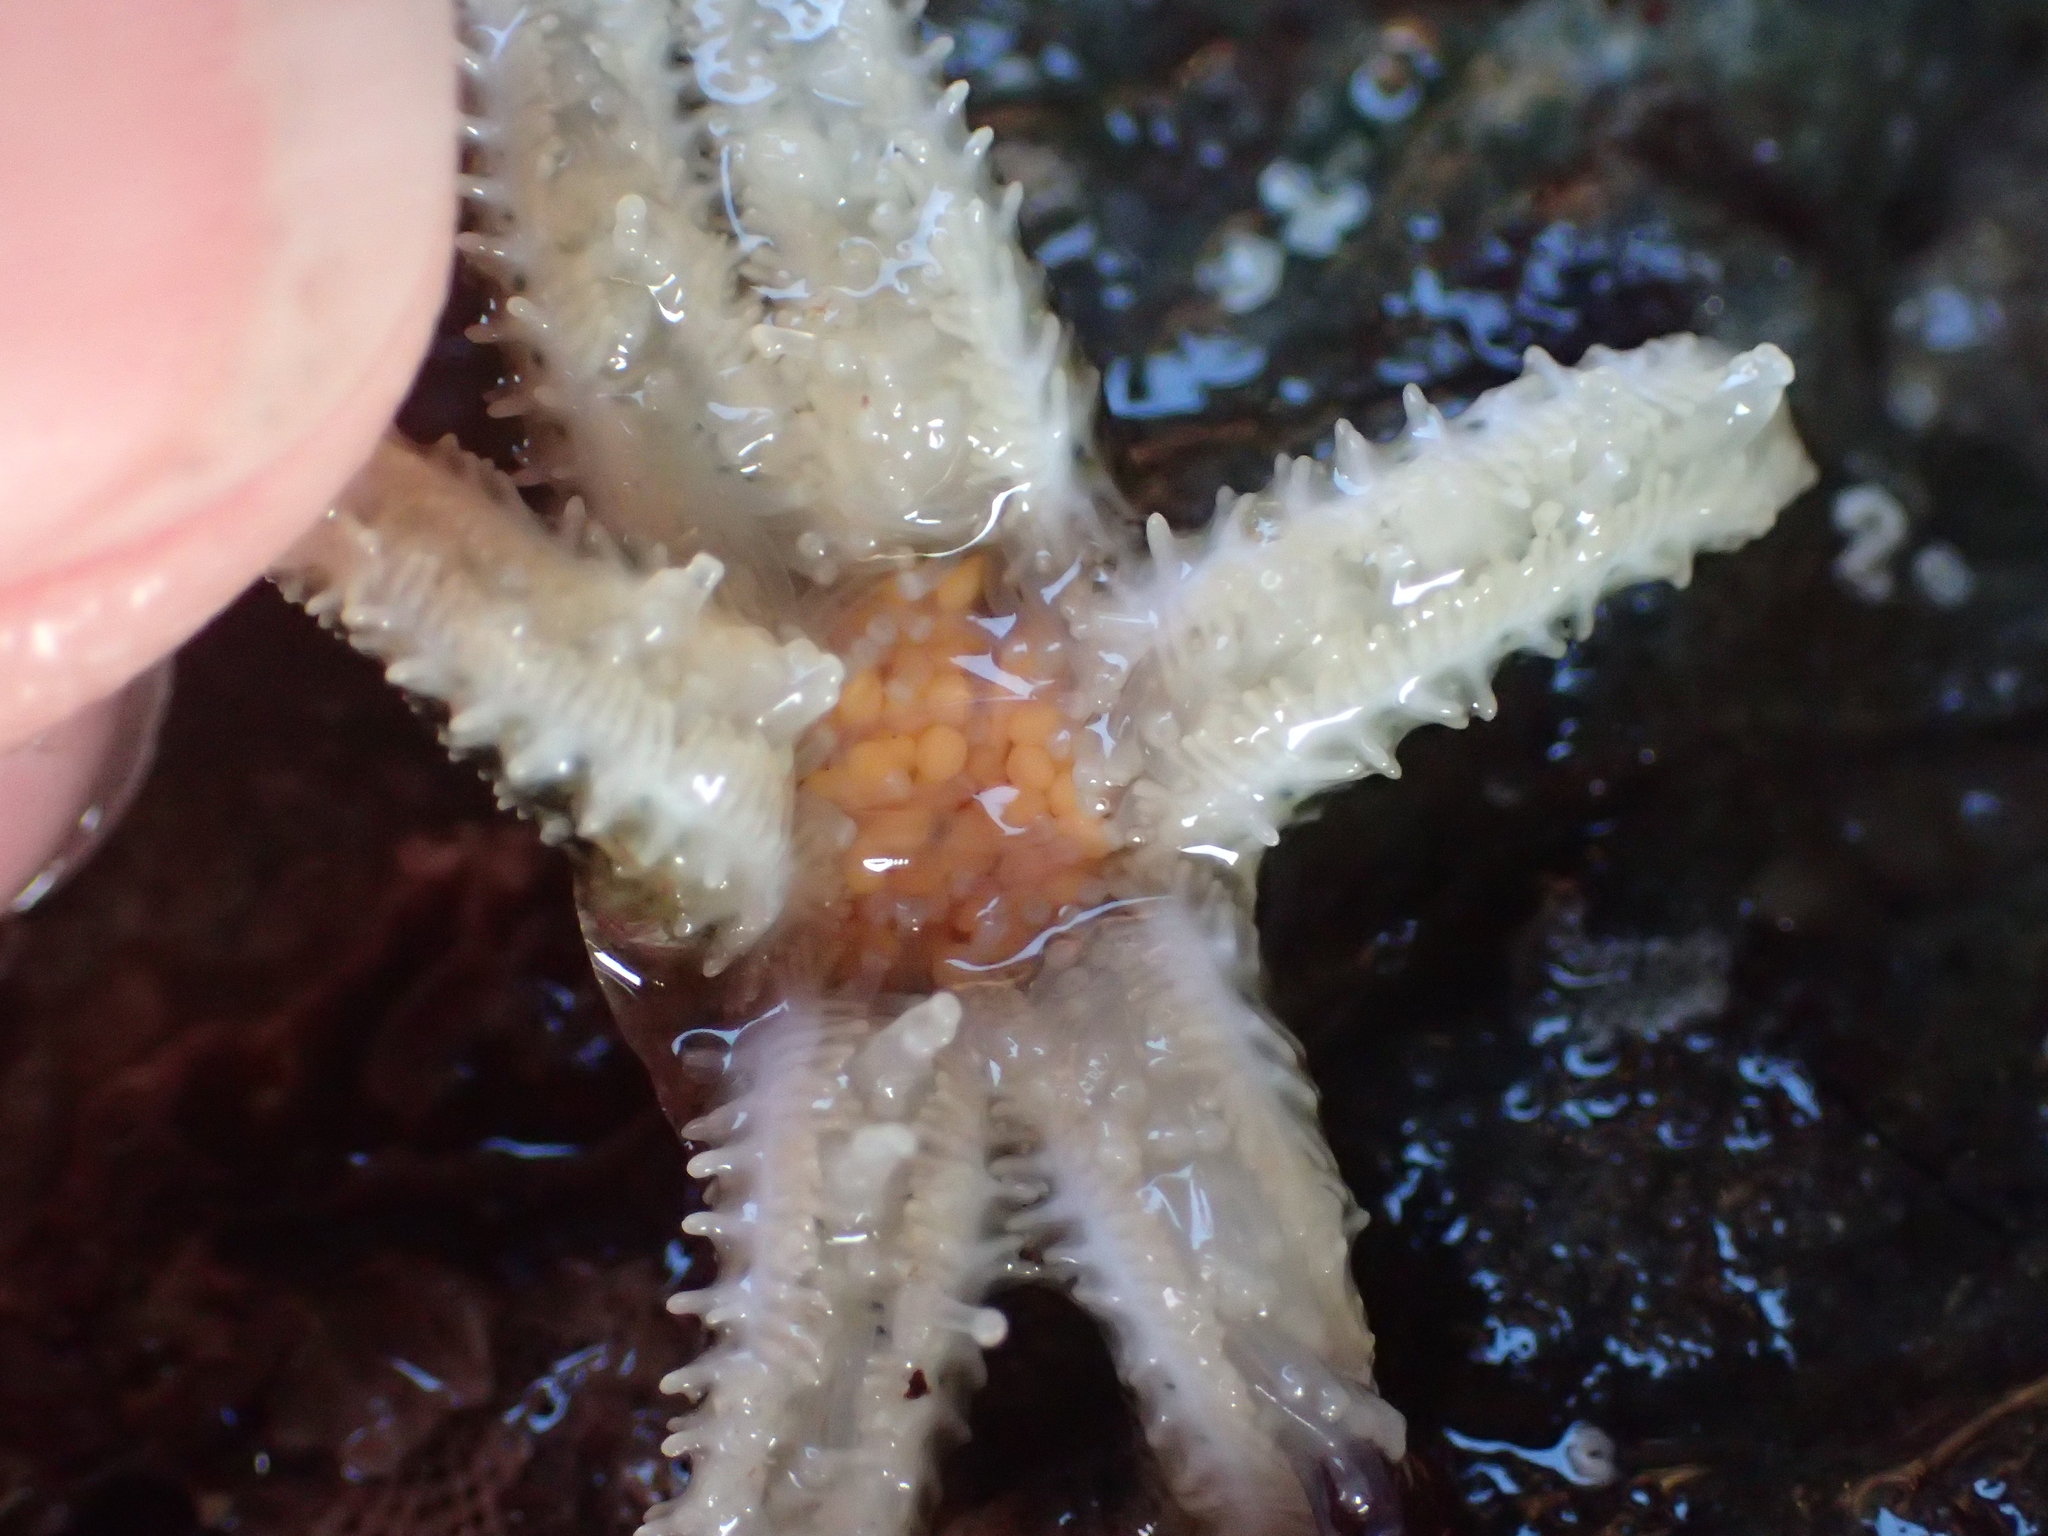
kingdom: Animalia
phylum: Echinodermata
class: Asteroidea
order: Forcipulatida
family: Asteriidae
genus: Leptasterias
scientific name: Leptasterias pusilla
